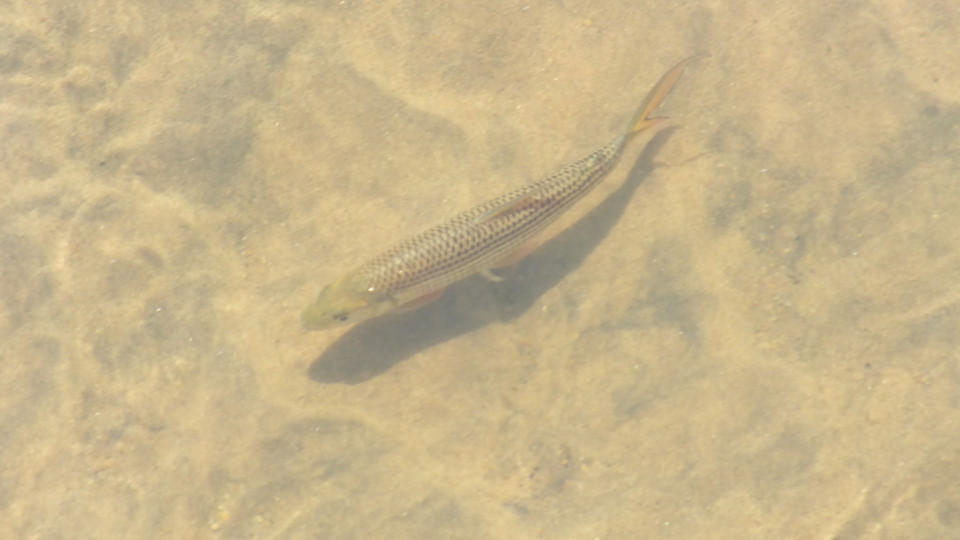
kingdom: Animalia
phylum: Chordata
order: Characiformes
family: Alestidae
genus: Hydrocynus
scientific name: Hydrocynus vittatus
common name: Tigerfish
